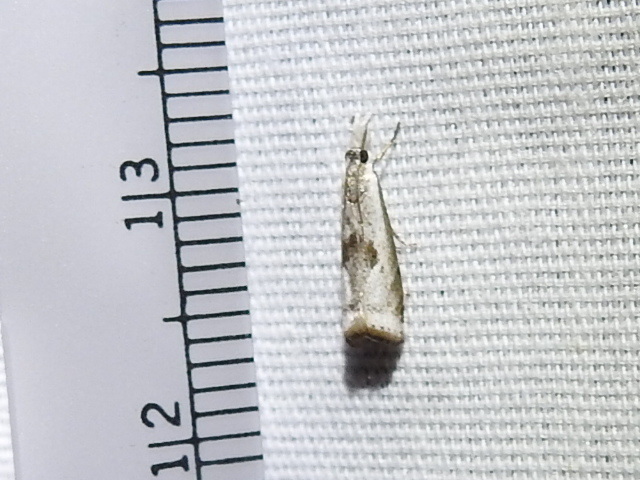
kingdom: Animalia
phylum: Arthropoda
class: Insecta
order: Lepidoptera
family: Crambidae
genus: Microcrambus
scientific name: Microcrambus croesus
